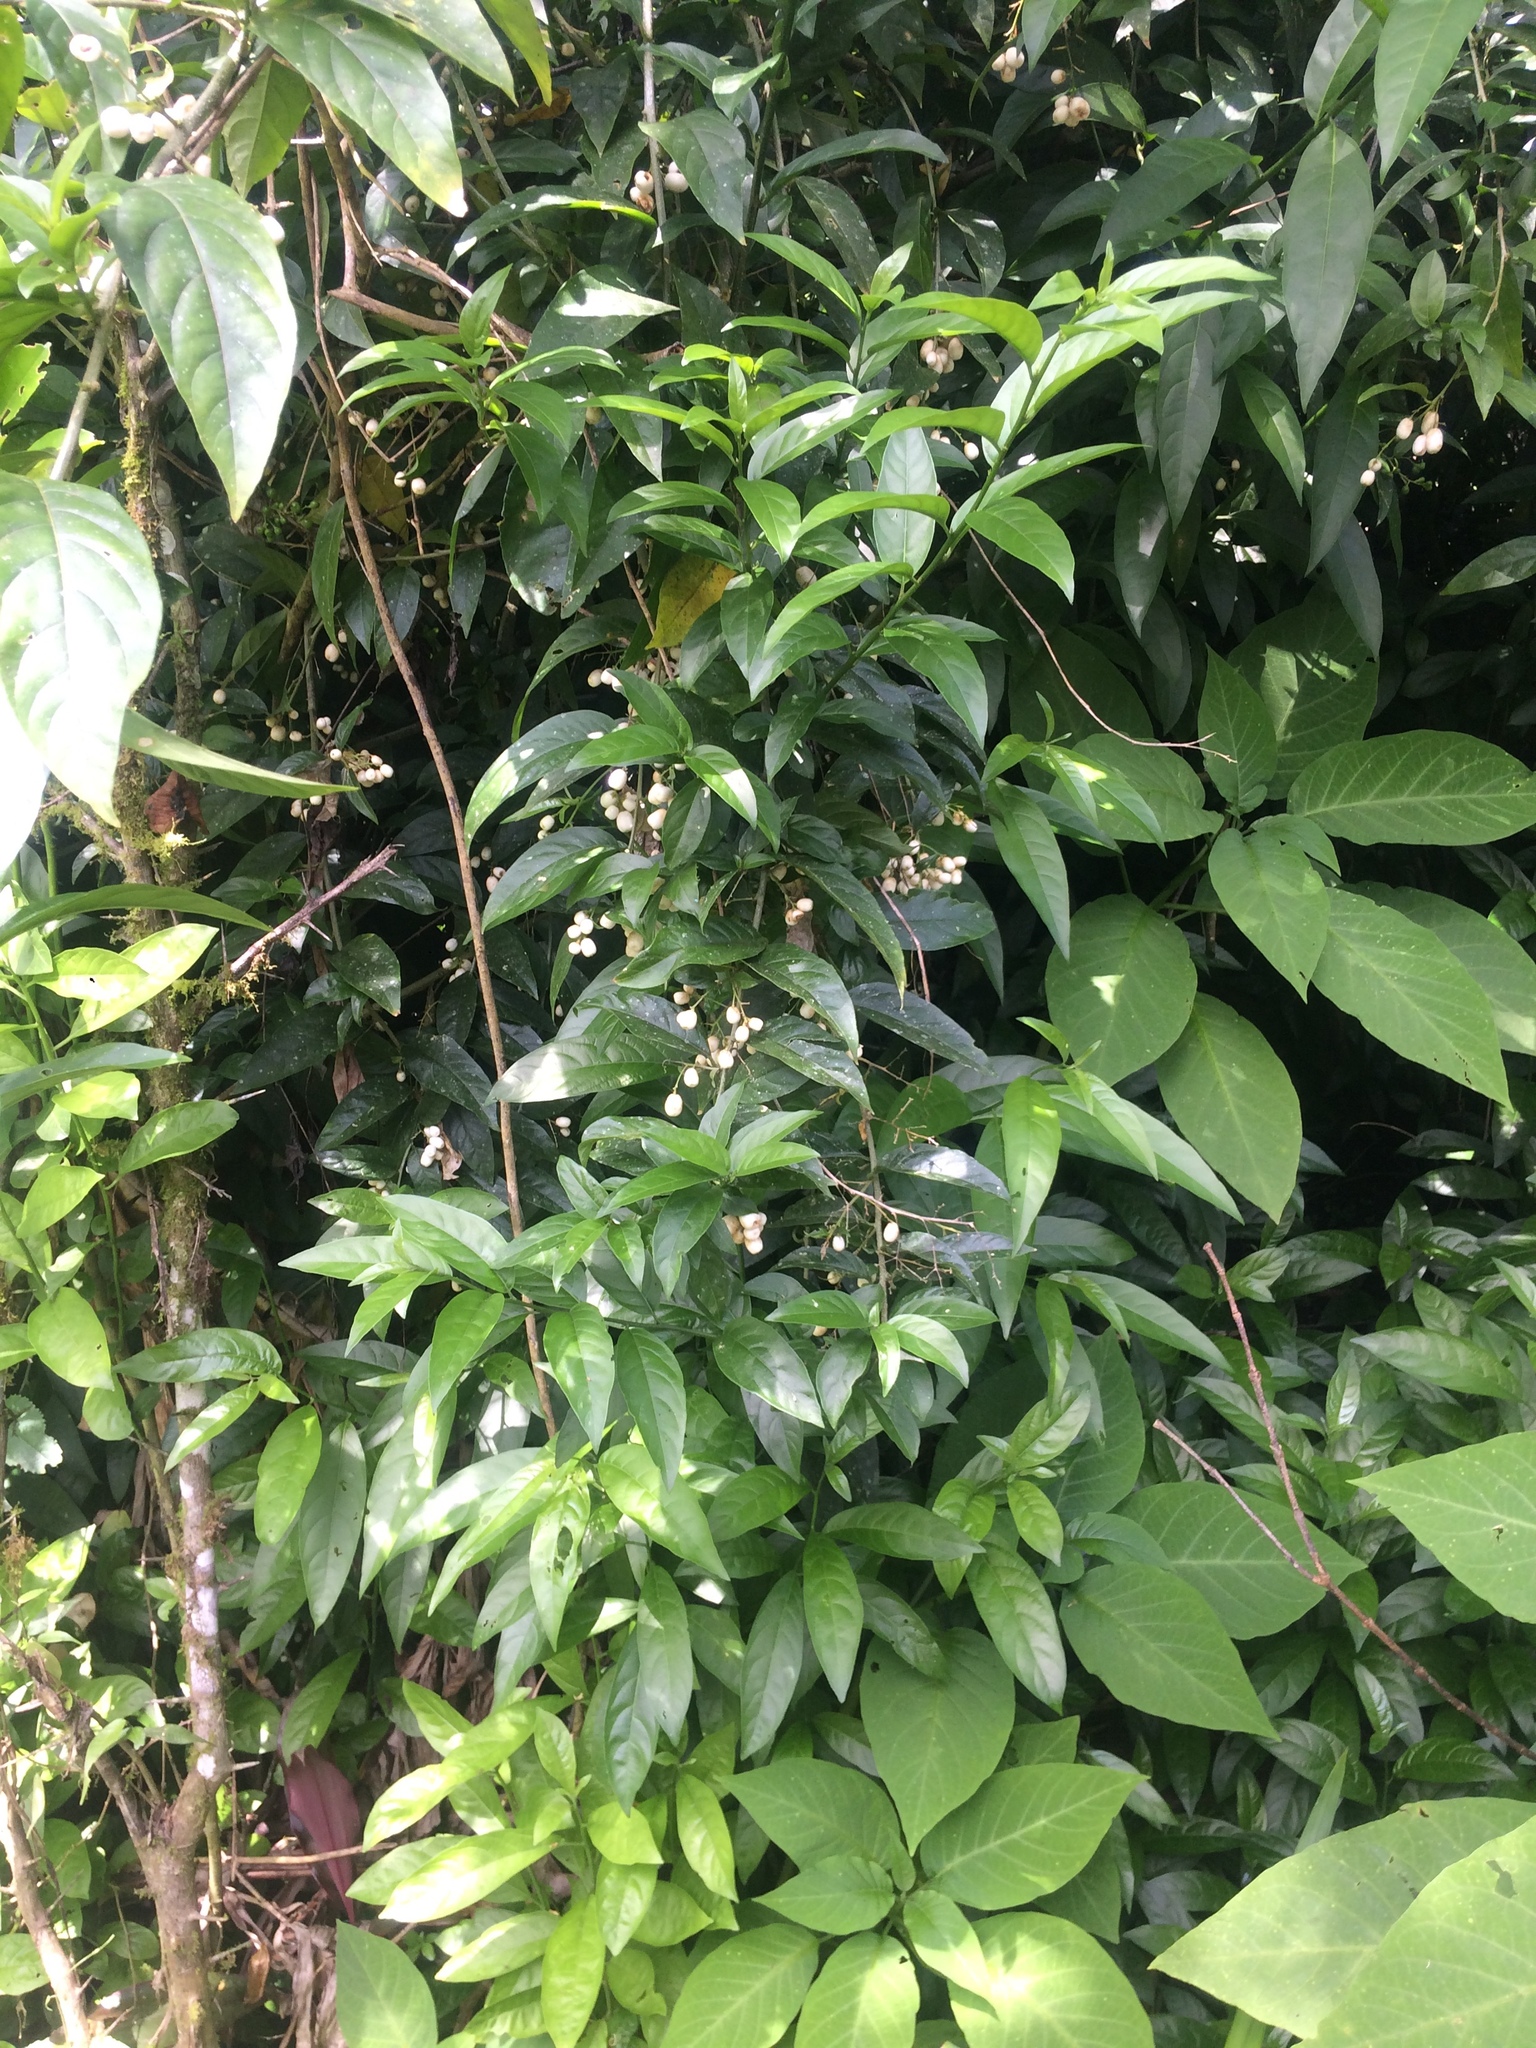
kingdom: Plantae
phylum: Tracheophyta
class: Magnoliopsida
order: Solanales
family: Solanaceae
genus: Cestrum
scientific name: Cestrum nocturnum
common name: Night jessamine
